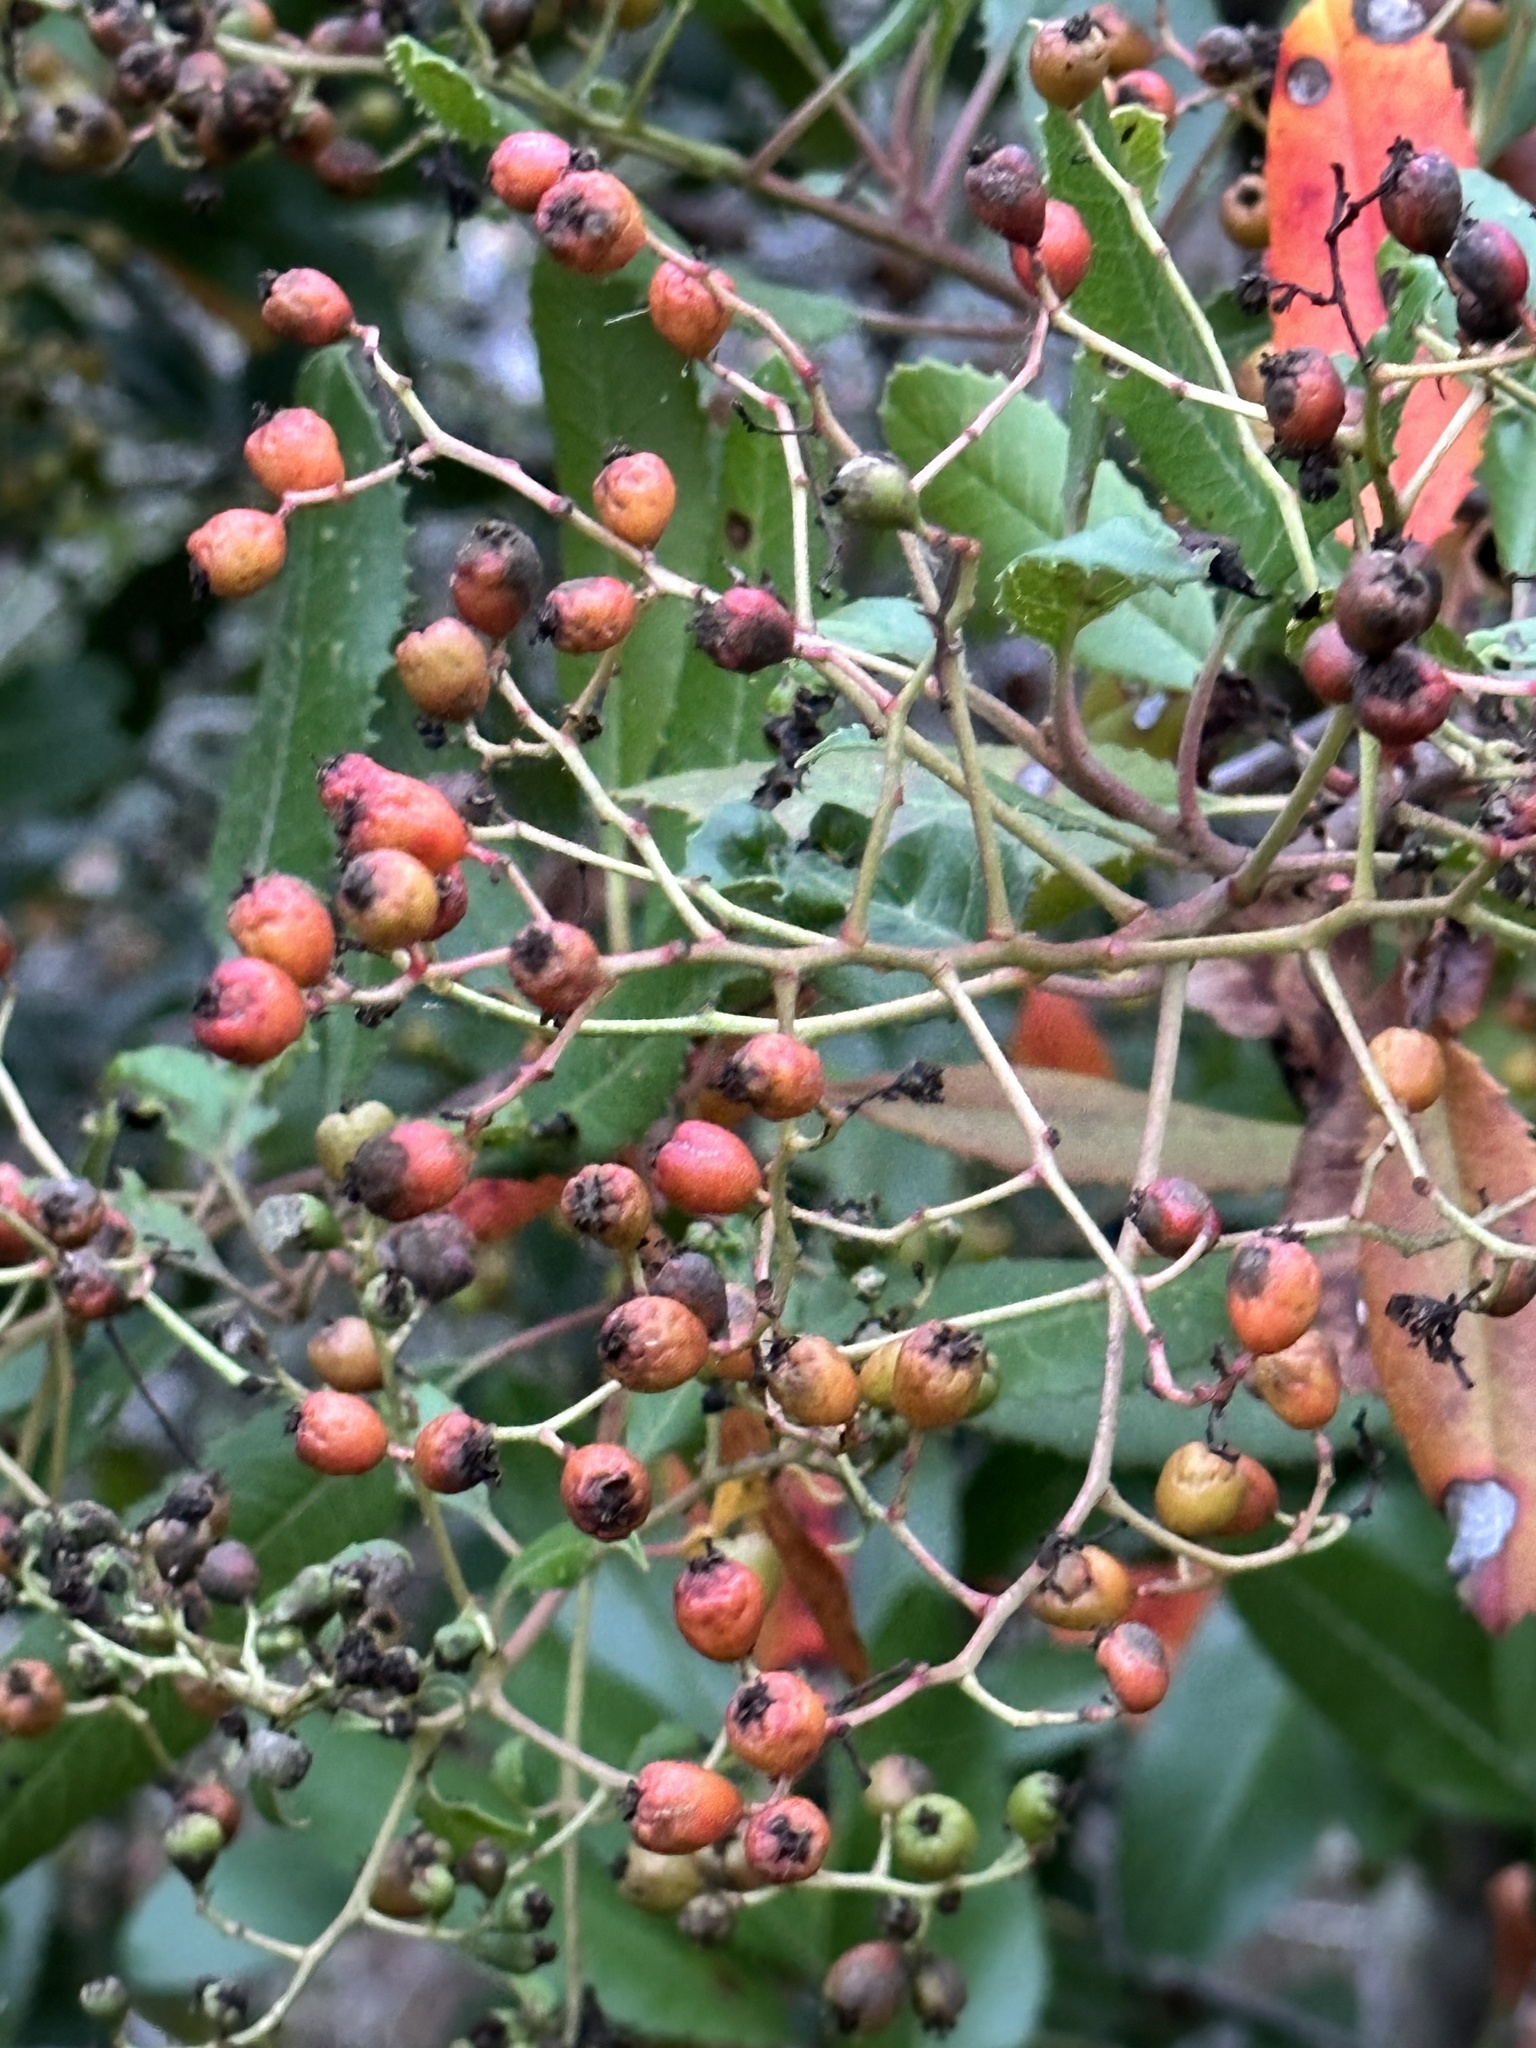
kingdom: Plantae
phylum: Tracheophyta
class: Magnoliopsida
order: Rosales
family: Rosaceae
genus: Heteromeles
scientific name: Heteromeles arbutifolia
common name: California-holly
